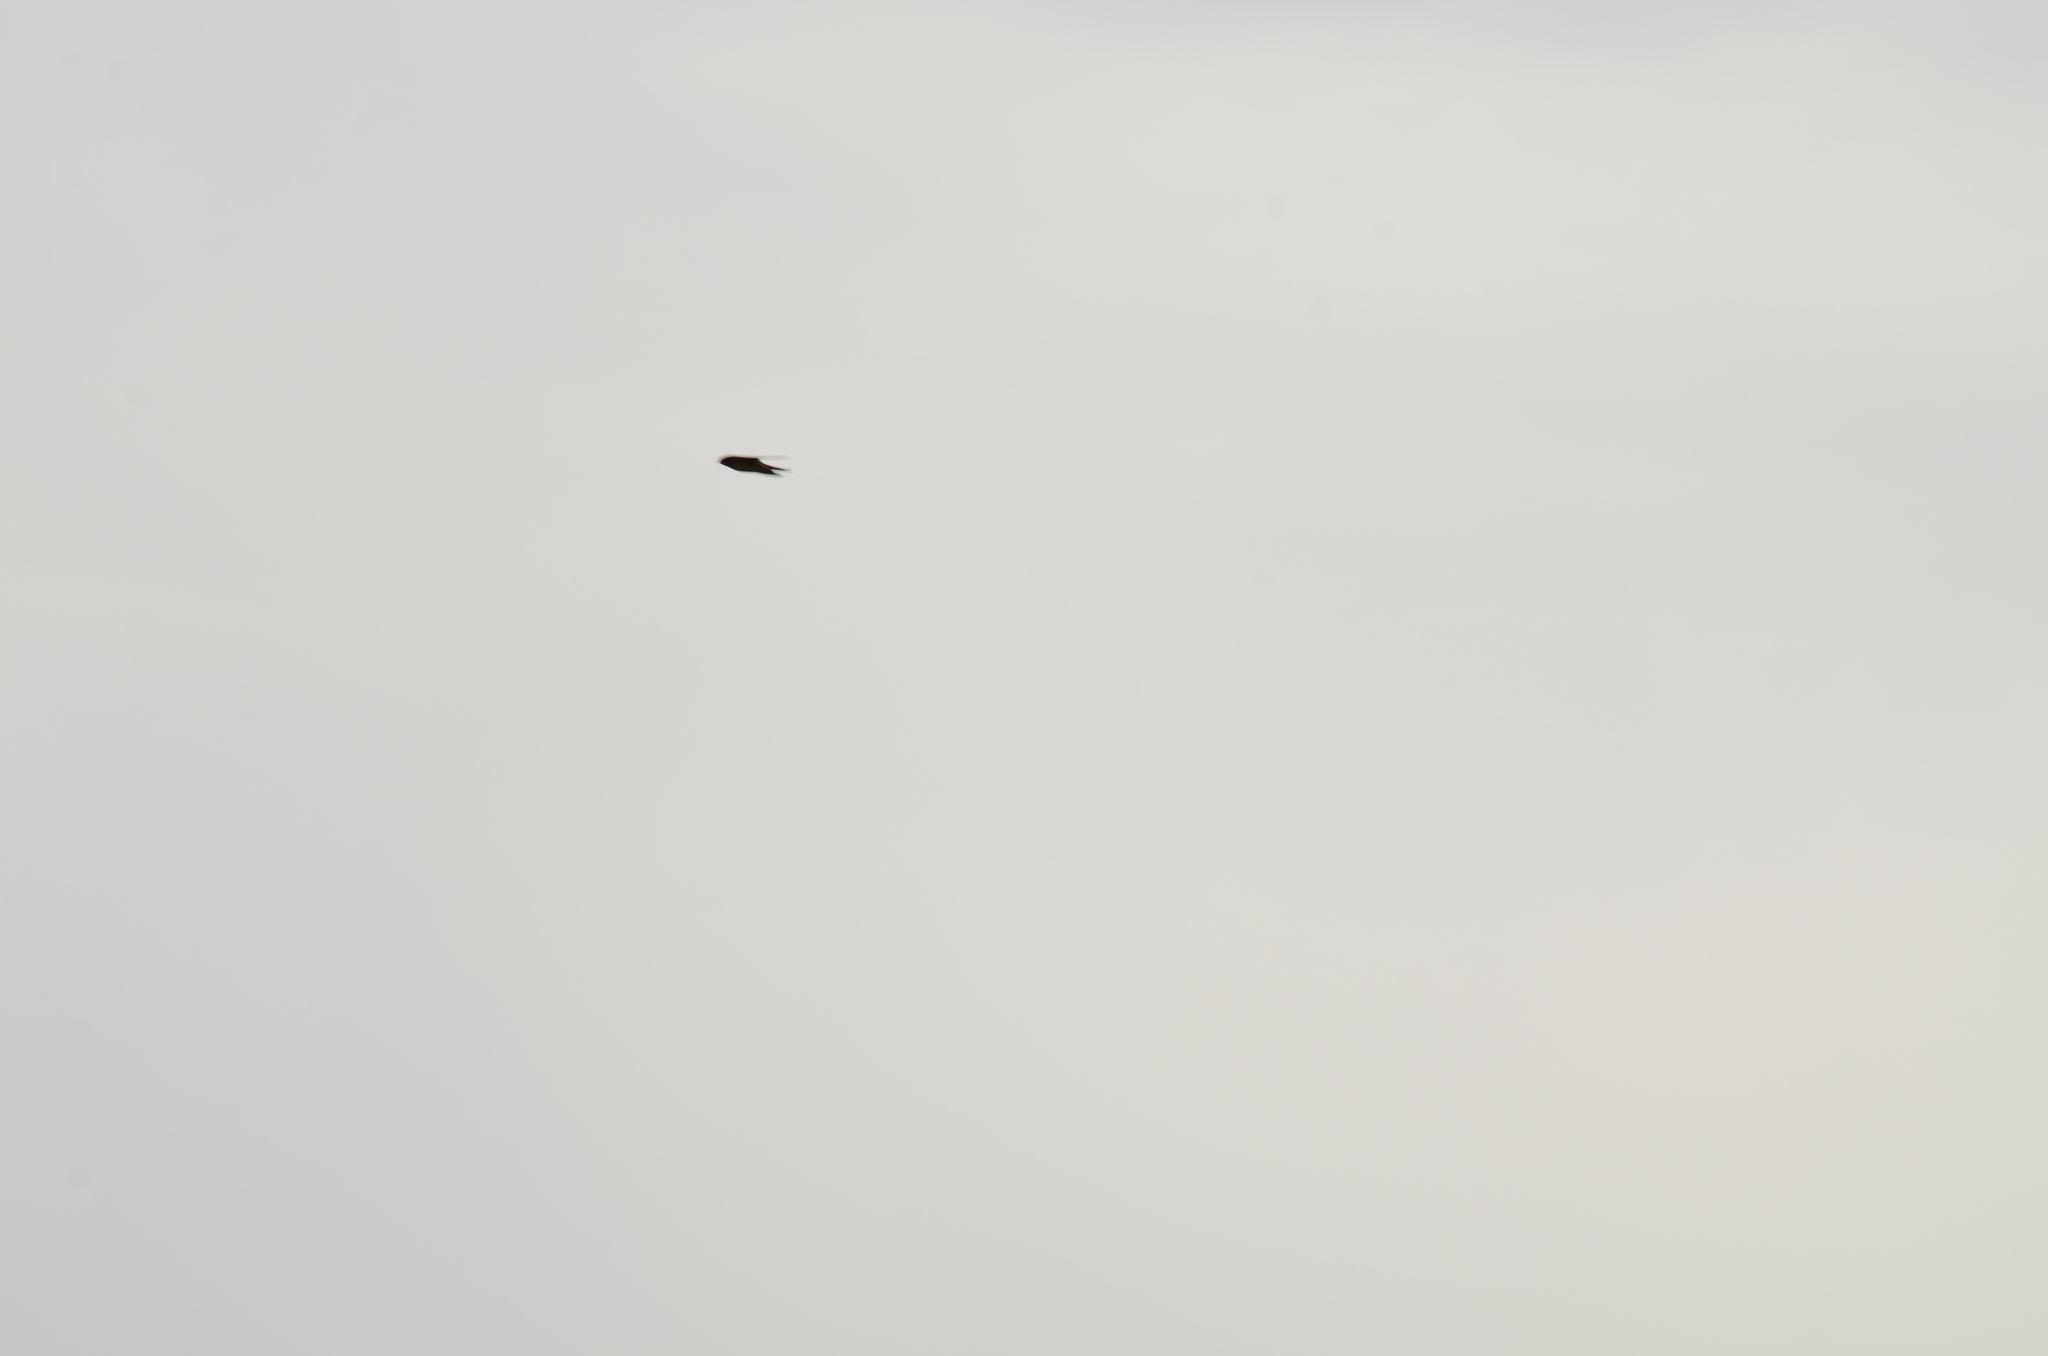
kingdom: Animalia
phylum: Chordata
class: Aves
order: Passeriformes
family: Hirundinidae
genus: Hirundo
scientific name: Hirundo rustica
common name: Barn swallow
